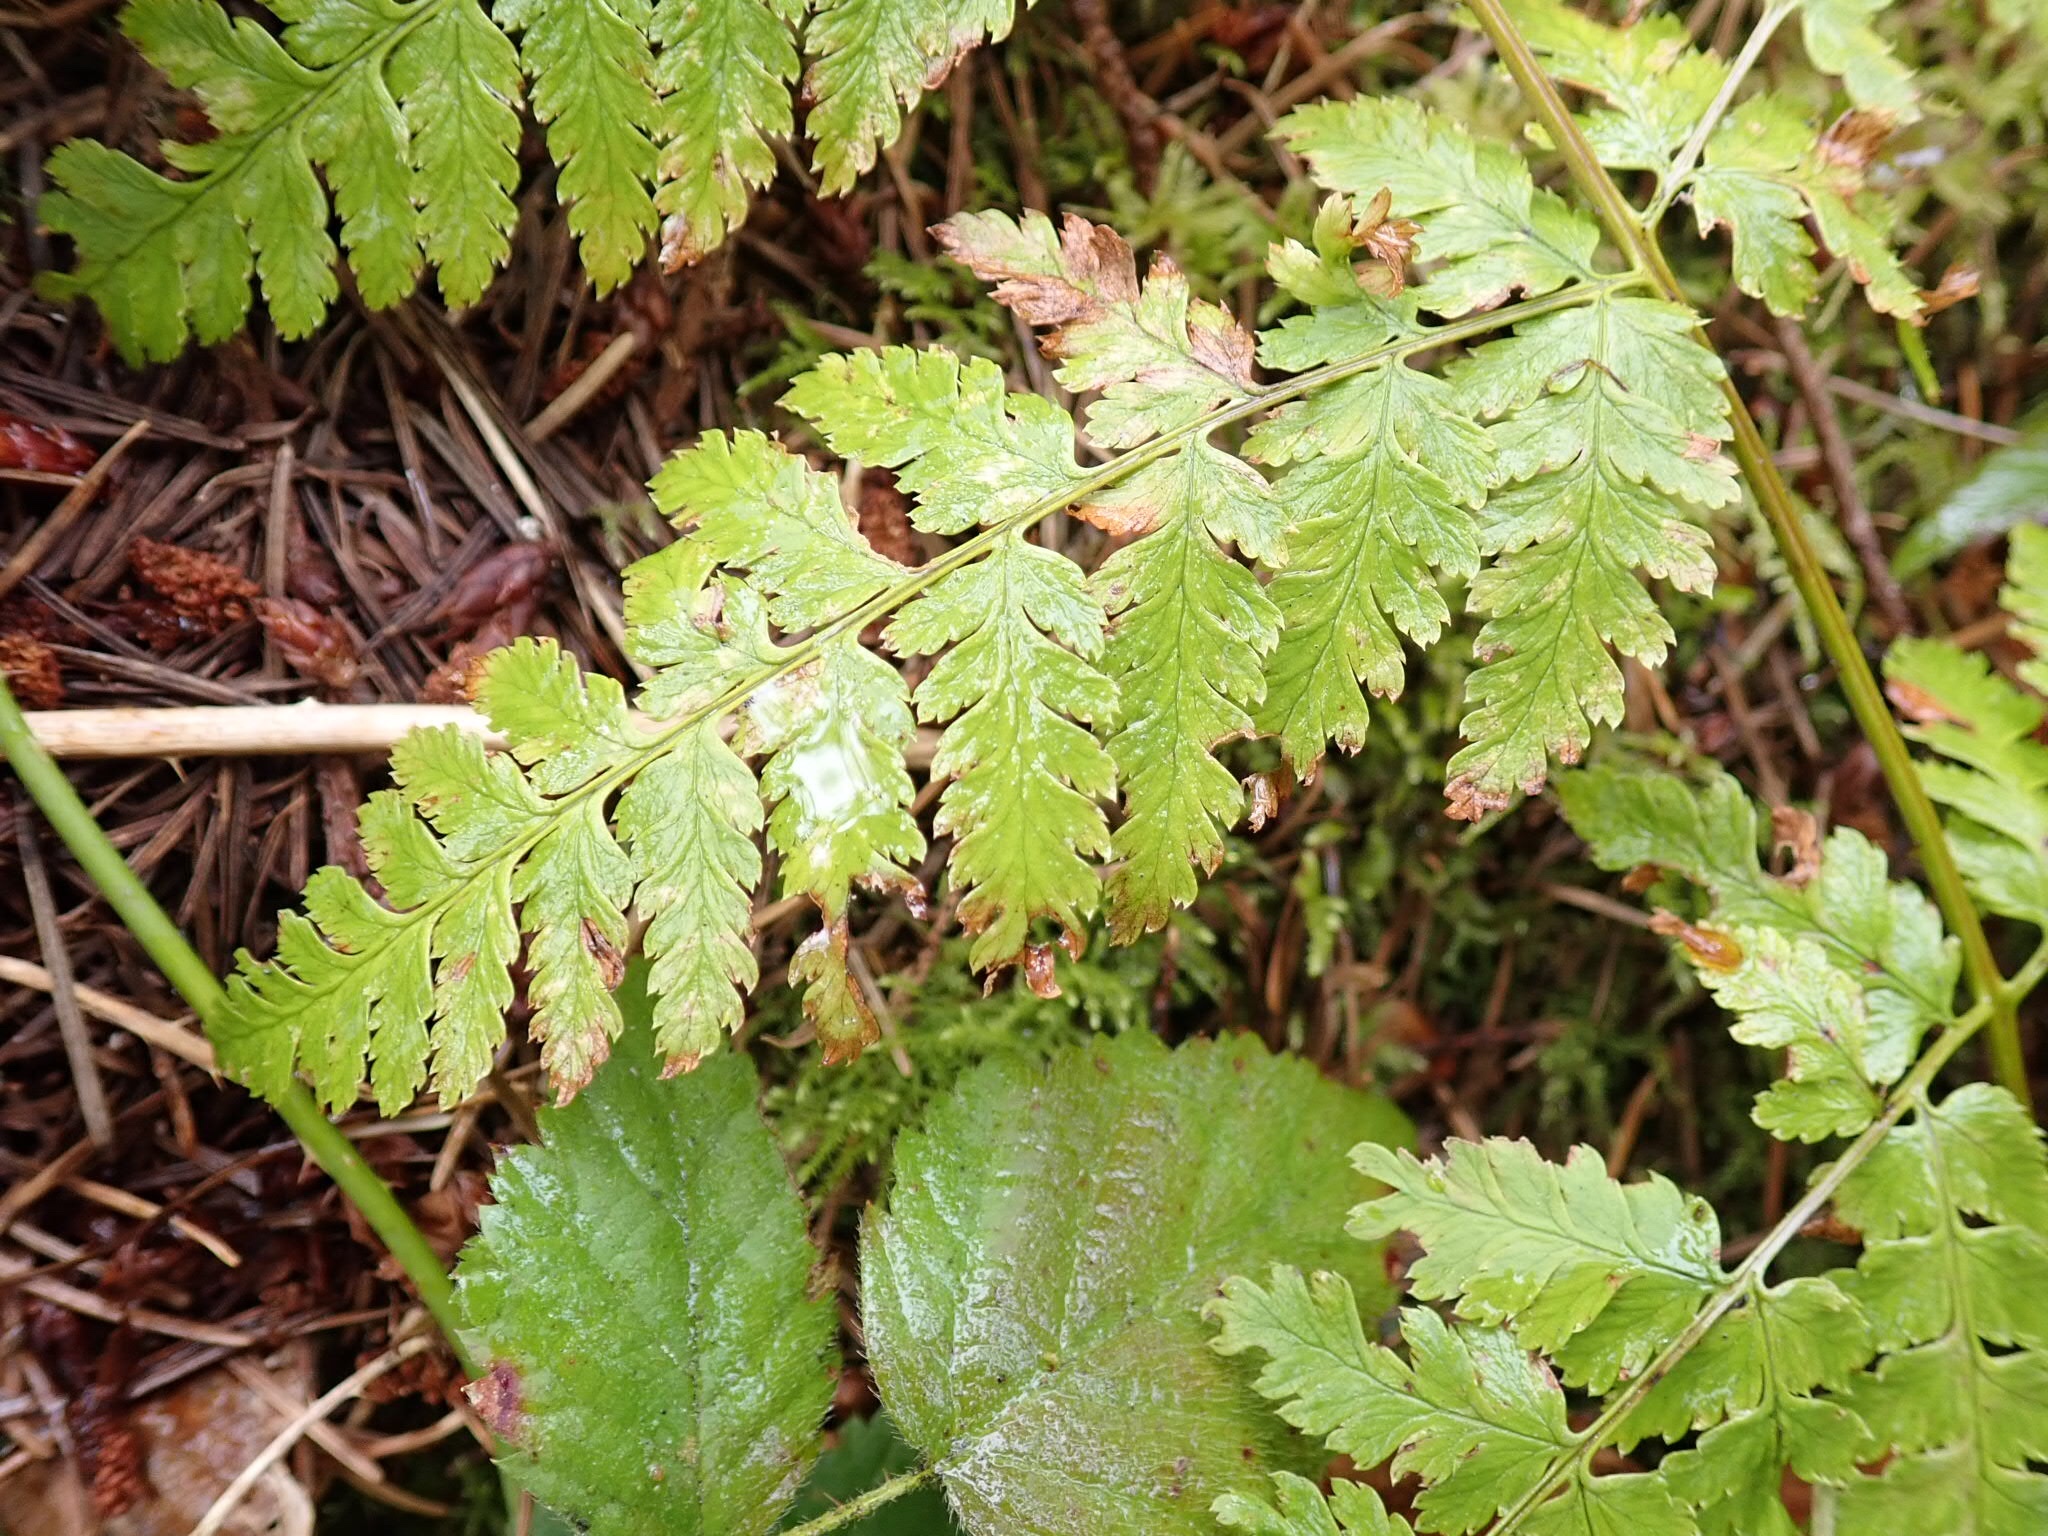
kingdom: Plantae
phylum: Tracheophyta
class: Polypodiopsida
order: Polypodiales
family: Dryopteridaceae
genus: Dryopteris
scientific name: Dryopteris expansa
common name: Northern buckler fern
